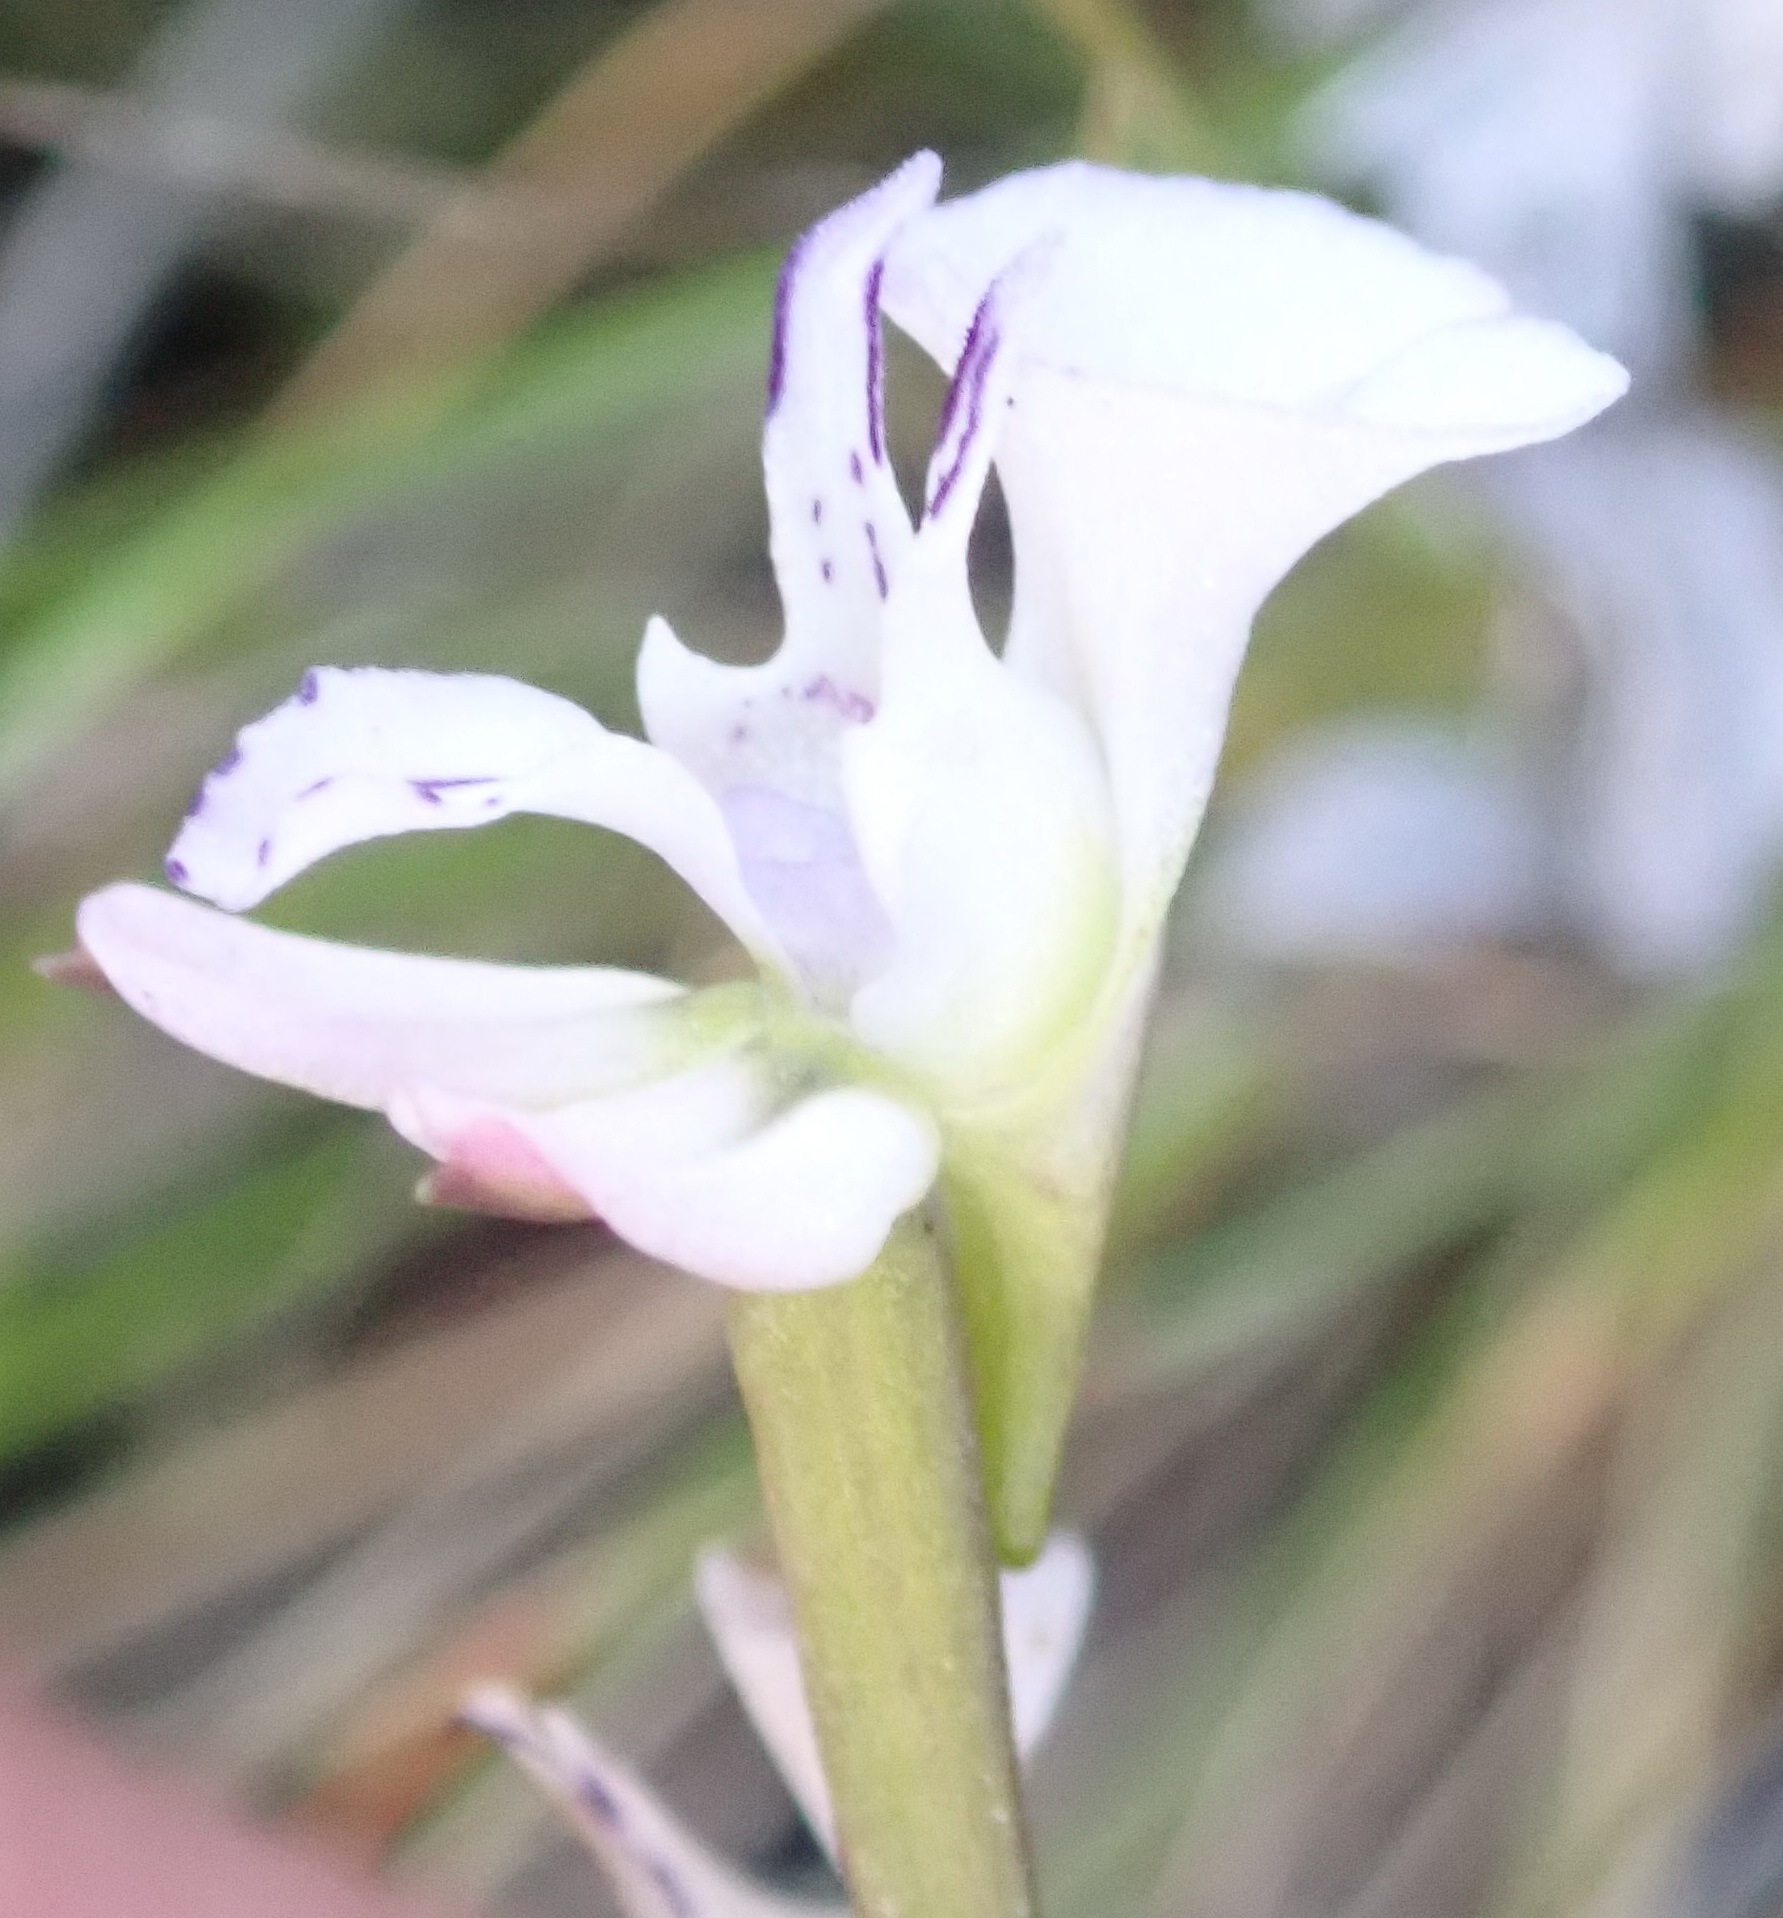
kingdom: Plantae
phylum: Tracheophyta
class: Liliopsida
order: Asparagales
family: Orchidaceae
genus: Disa
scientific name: Disa sagittalis
